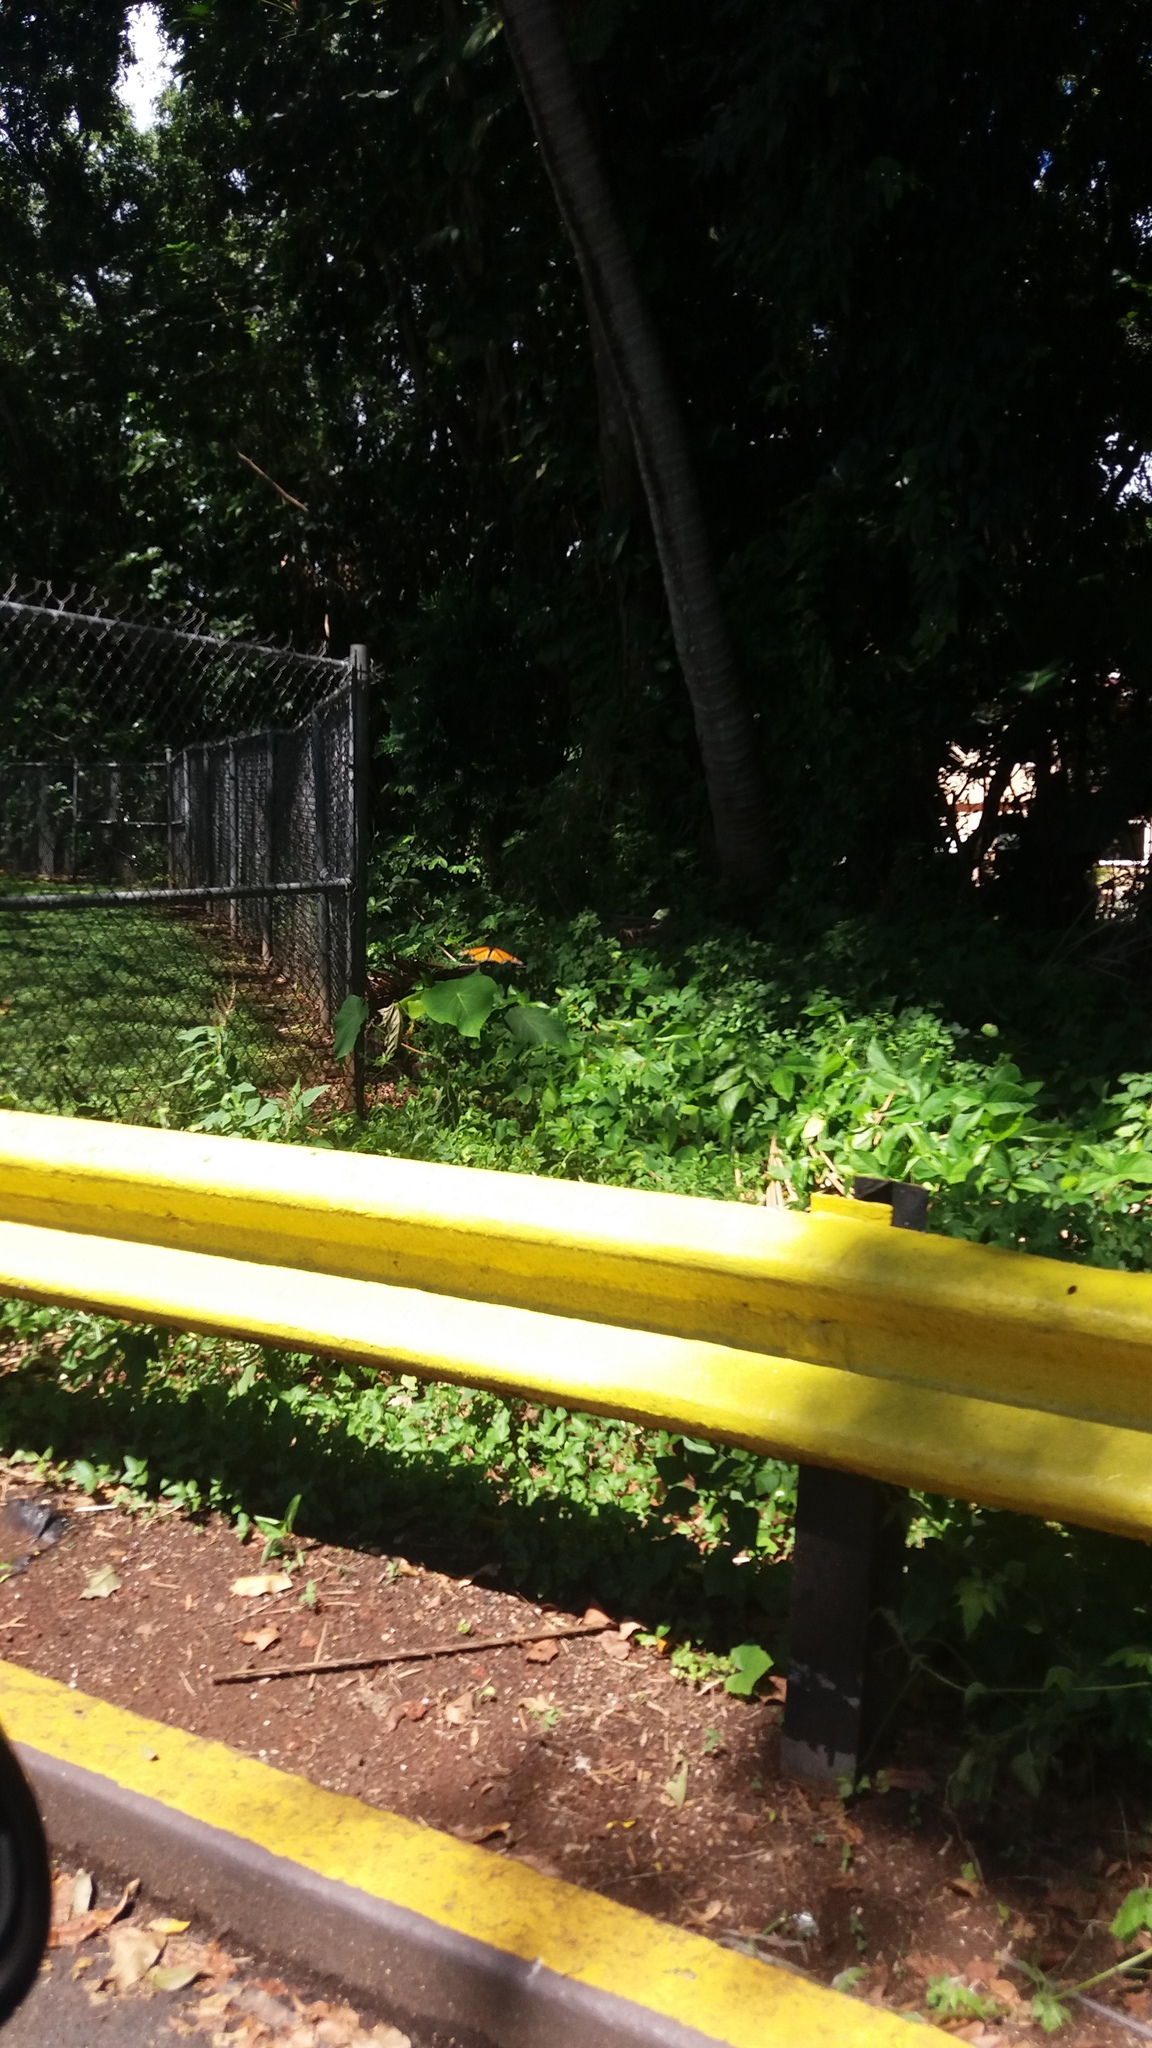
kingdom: Animalia
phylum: Arthropoda
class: Insecta
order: Lepidoptera
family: Nymphalidae
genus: Danaus
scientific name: Danaus plexippus
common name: Monarch
